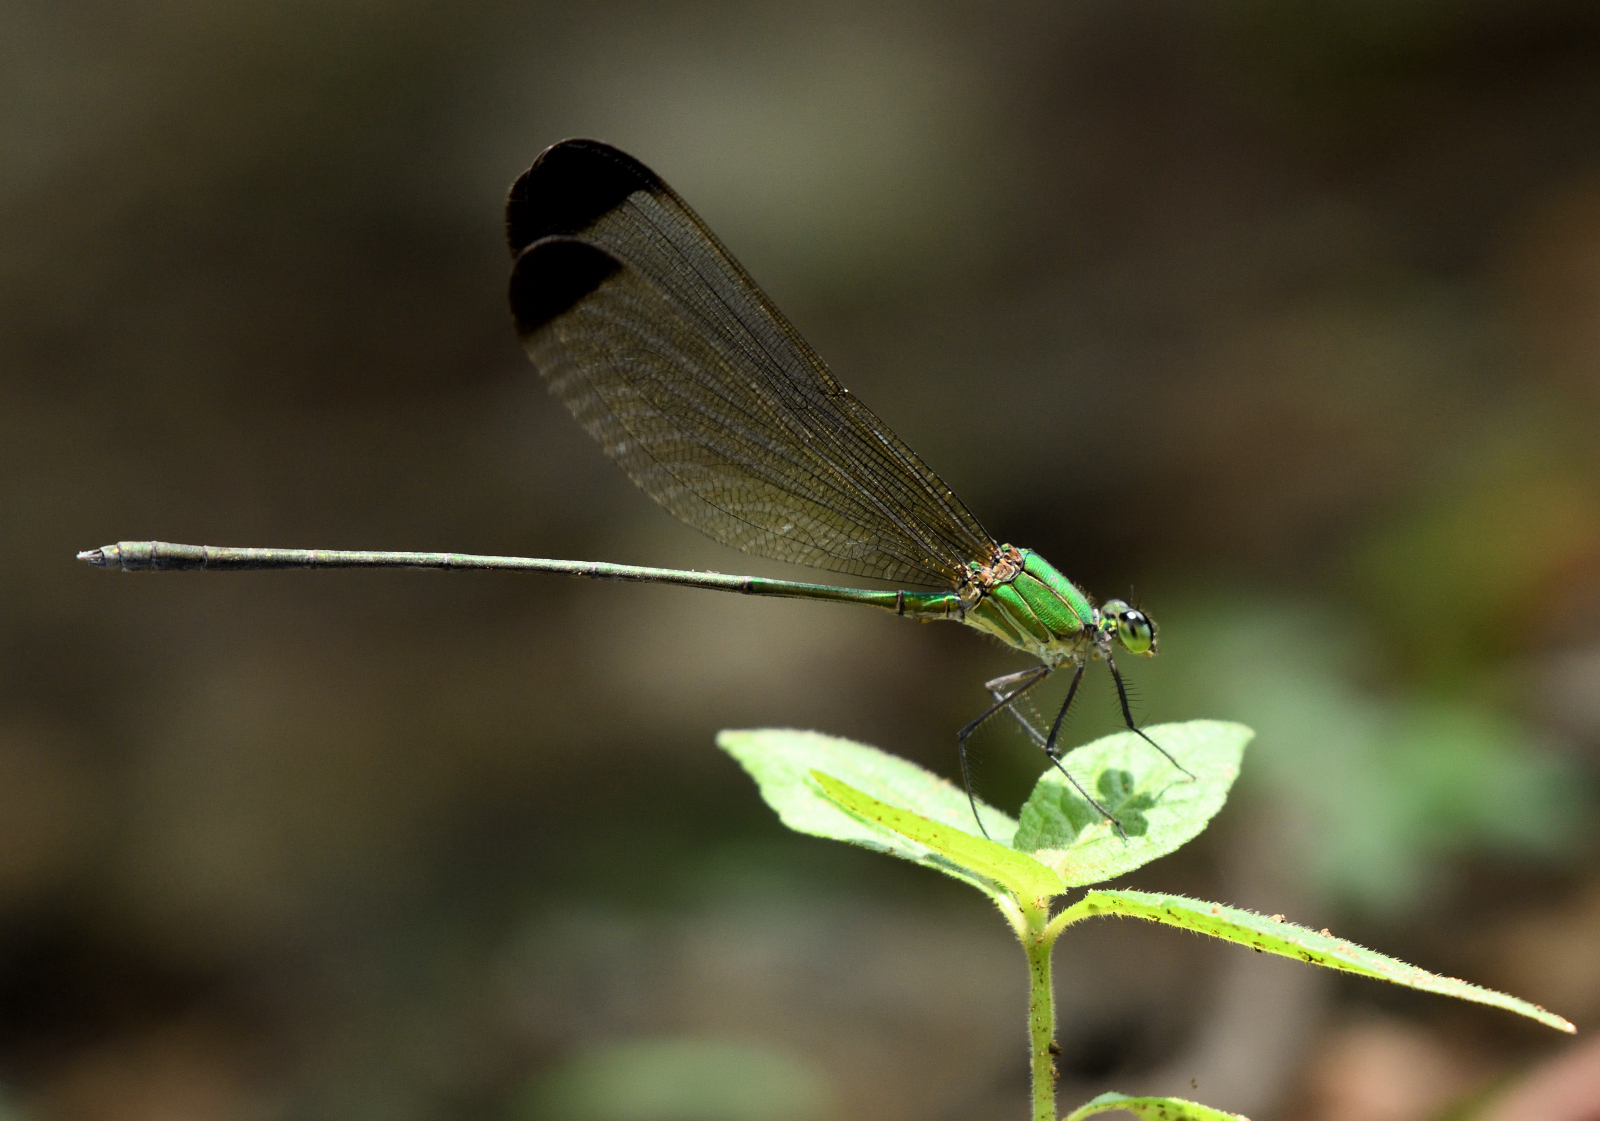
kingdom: Animalia
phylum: Arthropoda
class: Insecta
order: Odonata
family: Calopterygidae
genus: Vestalis
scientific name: Vestalis apicalis
